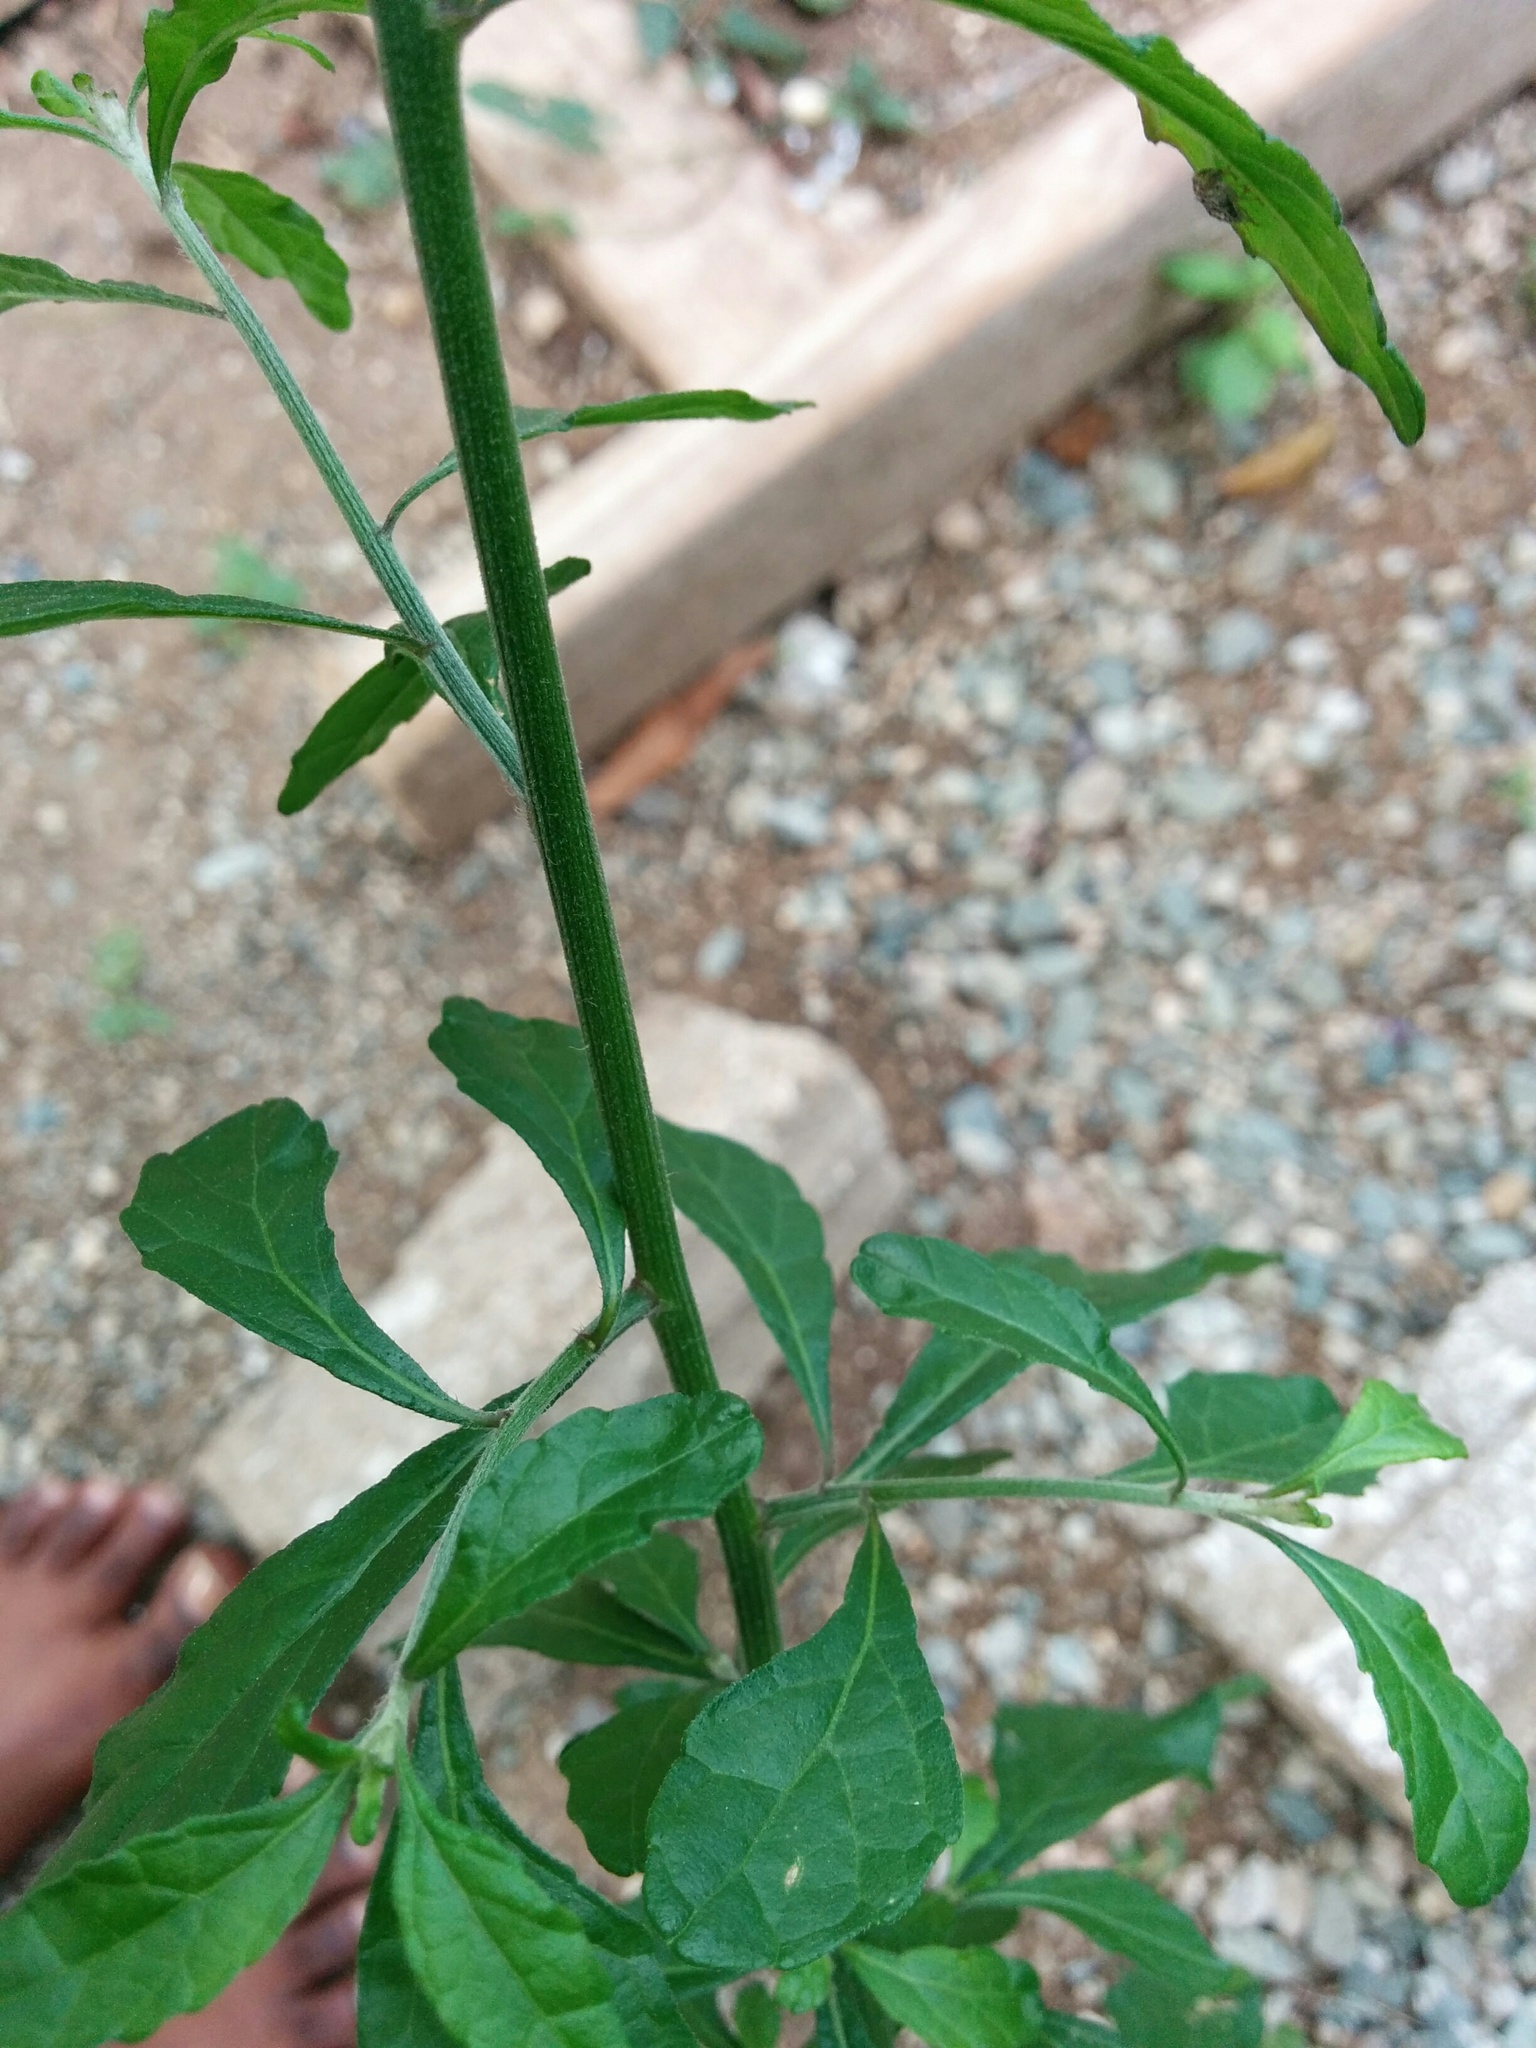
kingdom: Plantae
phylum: Tracheophyta
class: Magnoliopsida
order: Asterales
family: Asteraceae
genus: Cyanthillium
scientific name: Cyanthillium cinereum
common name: Little ironweed
